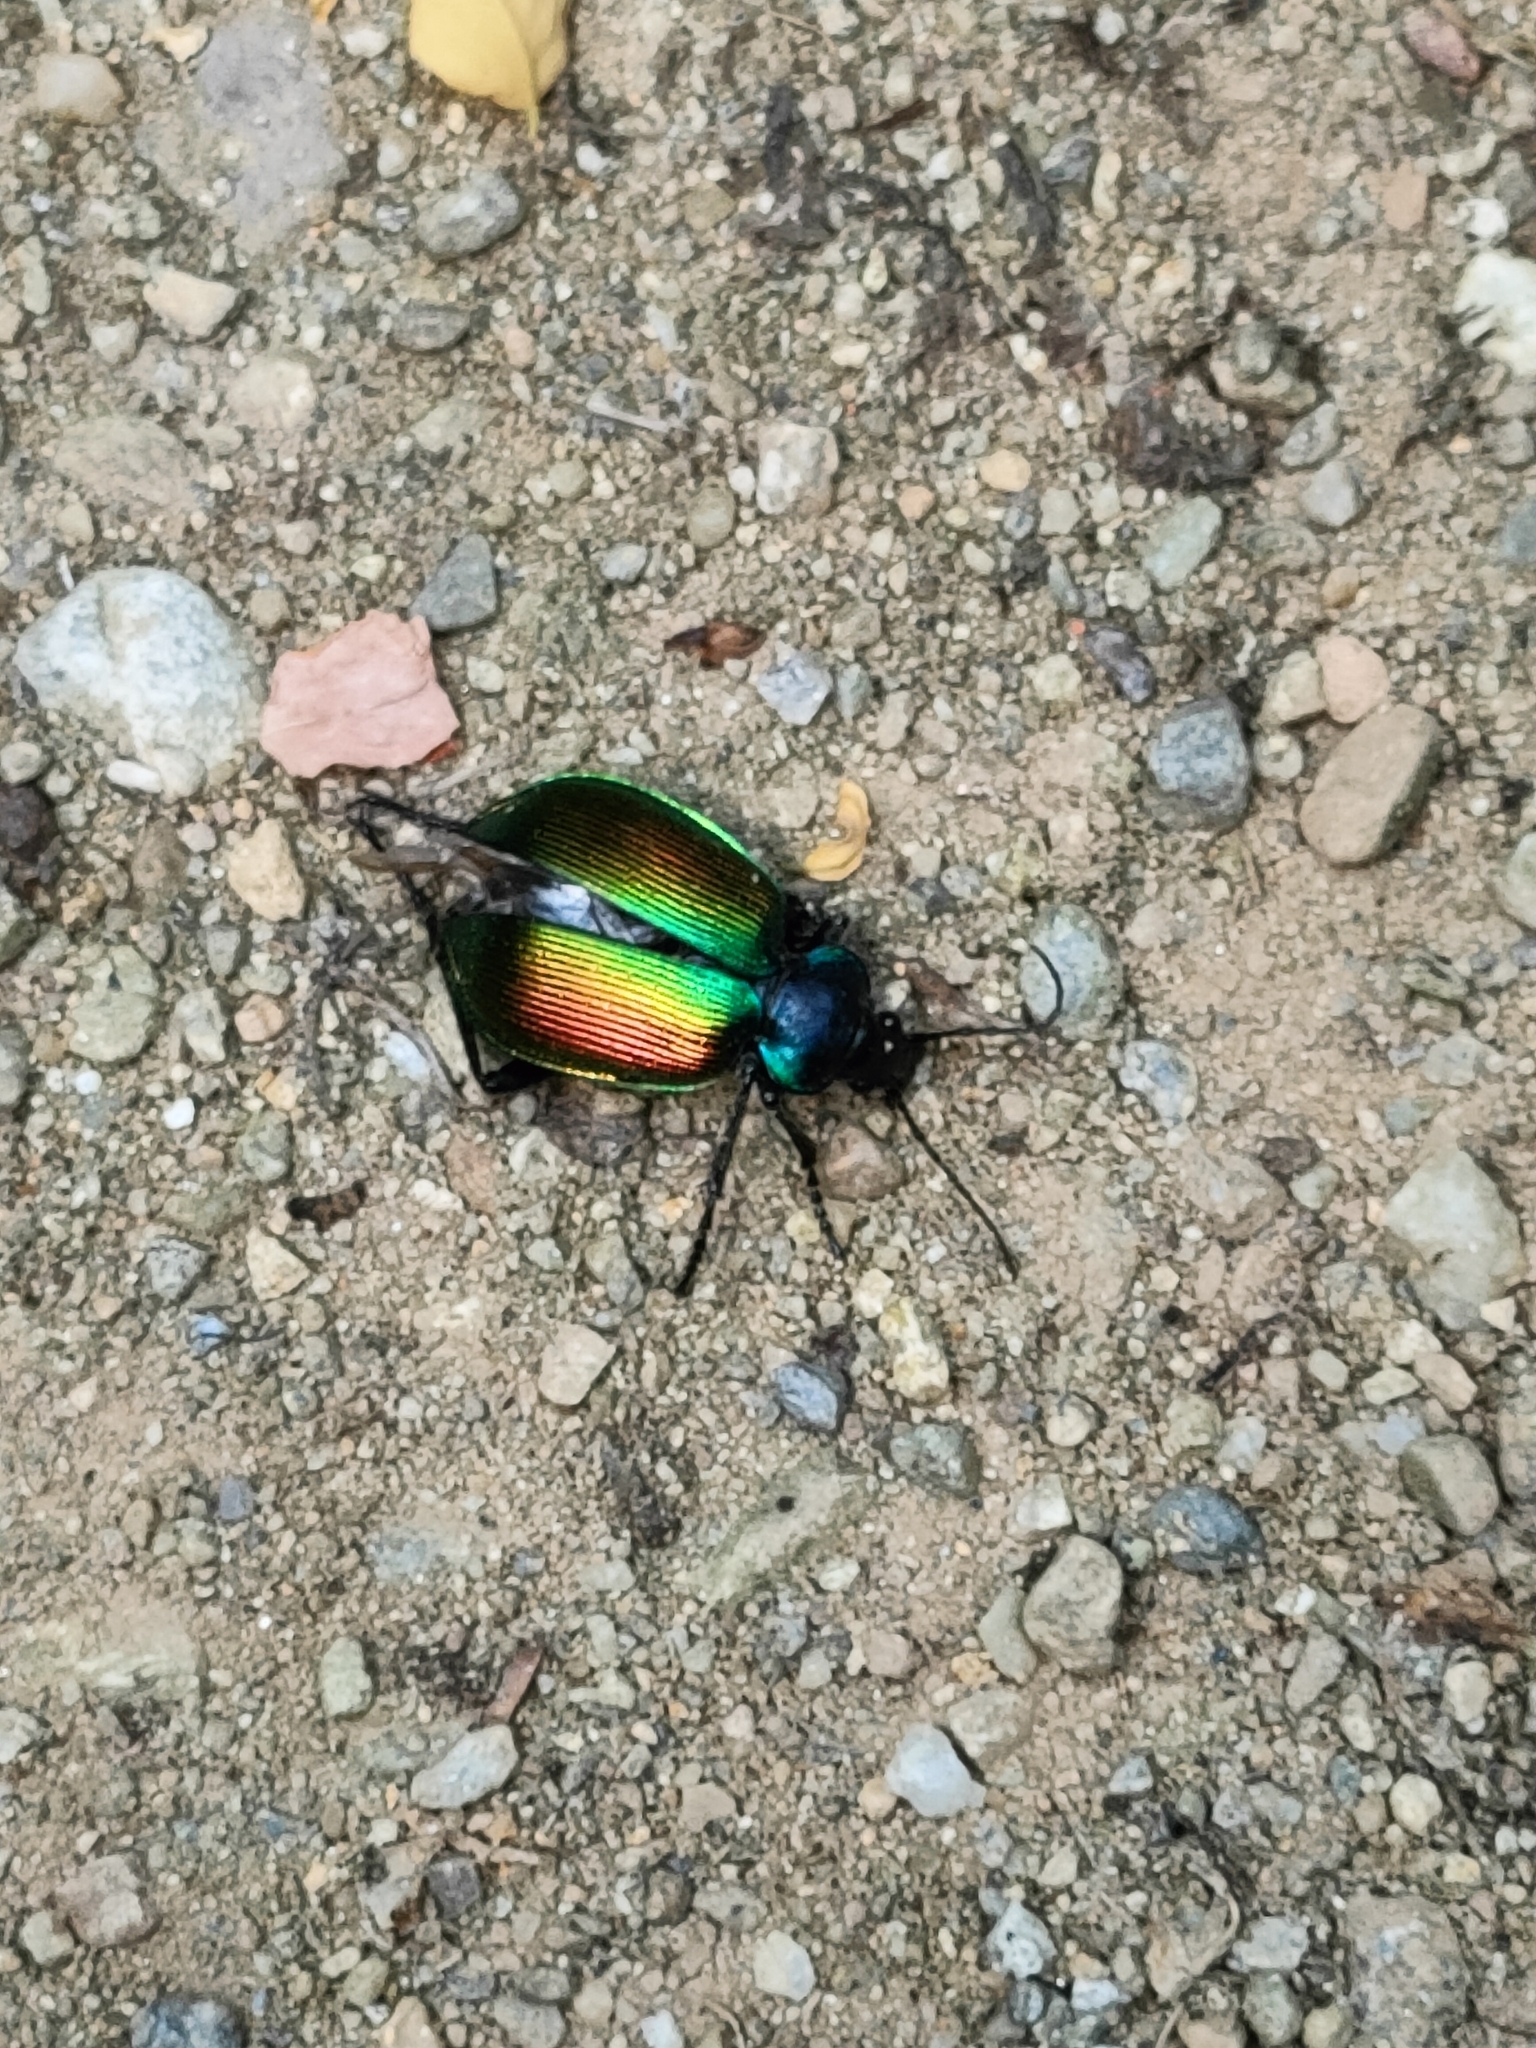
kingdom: Animalia
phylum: Arthropoda
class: Insecta
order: Coleoptera
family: Carabidae
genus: Calosoma
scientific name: Calosoma sycophanta
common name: Forest caterpillar hunter
